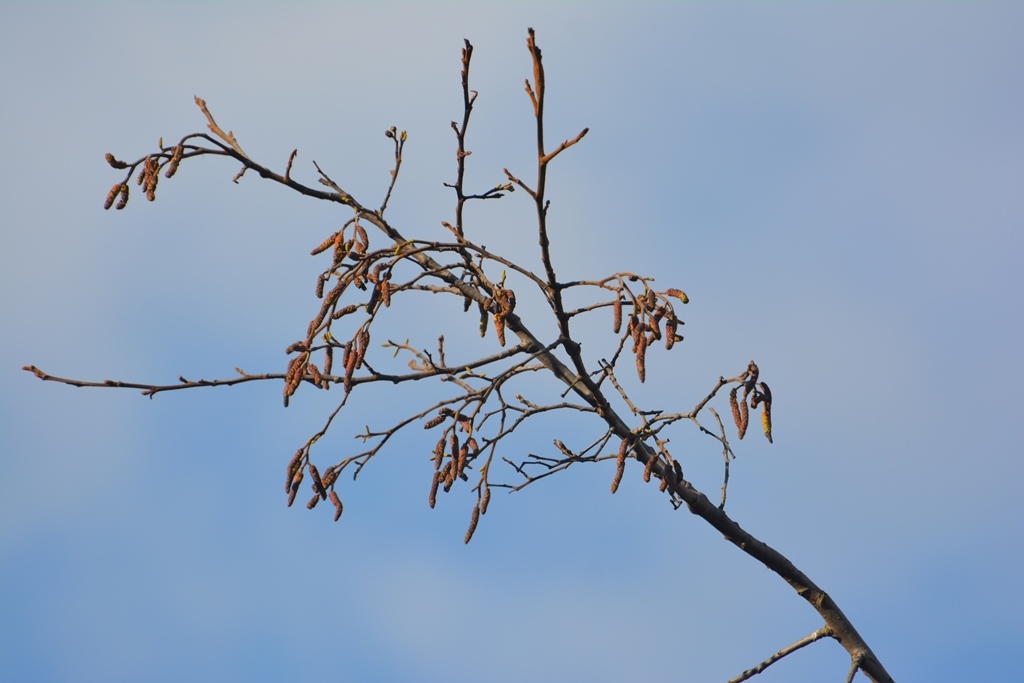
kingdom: Plantae
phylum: Tracheophyta
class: Magnoliopsida
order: Fagales
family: Betulaceae
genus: Alnus
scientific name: Alnus acuminata
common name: Alder
